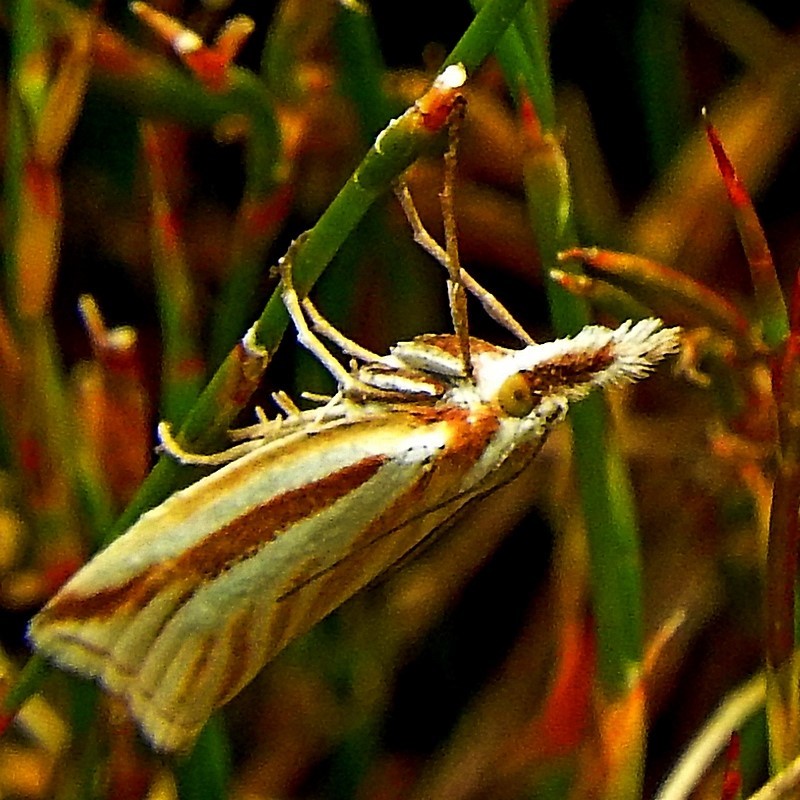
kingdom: Animalia
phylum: Arthropoda
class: Insecta
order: Lepidoptera
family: Crambidae
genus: Hednota
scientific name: Hednota megalarcha
